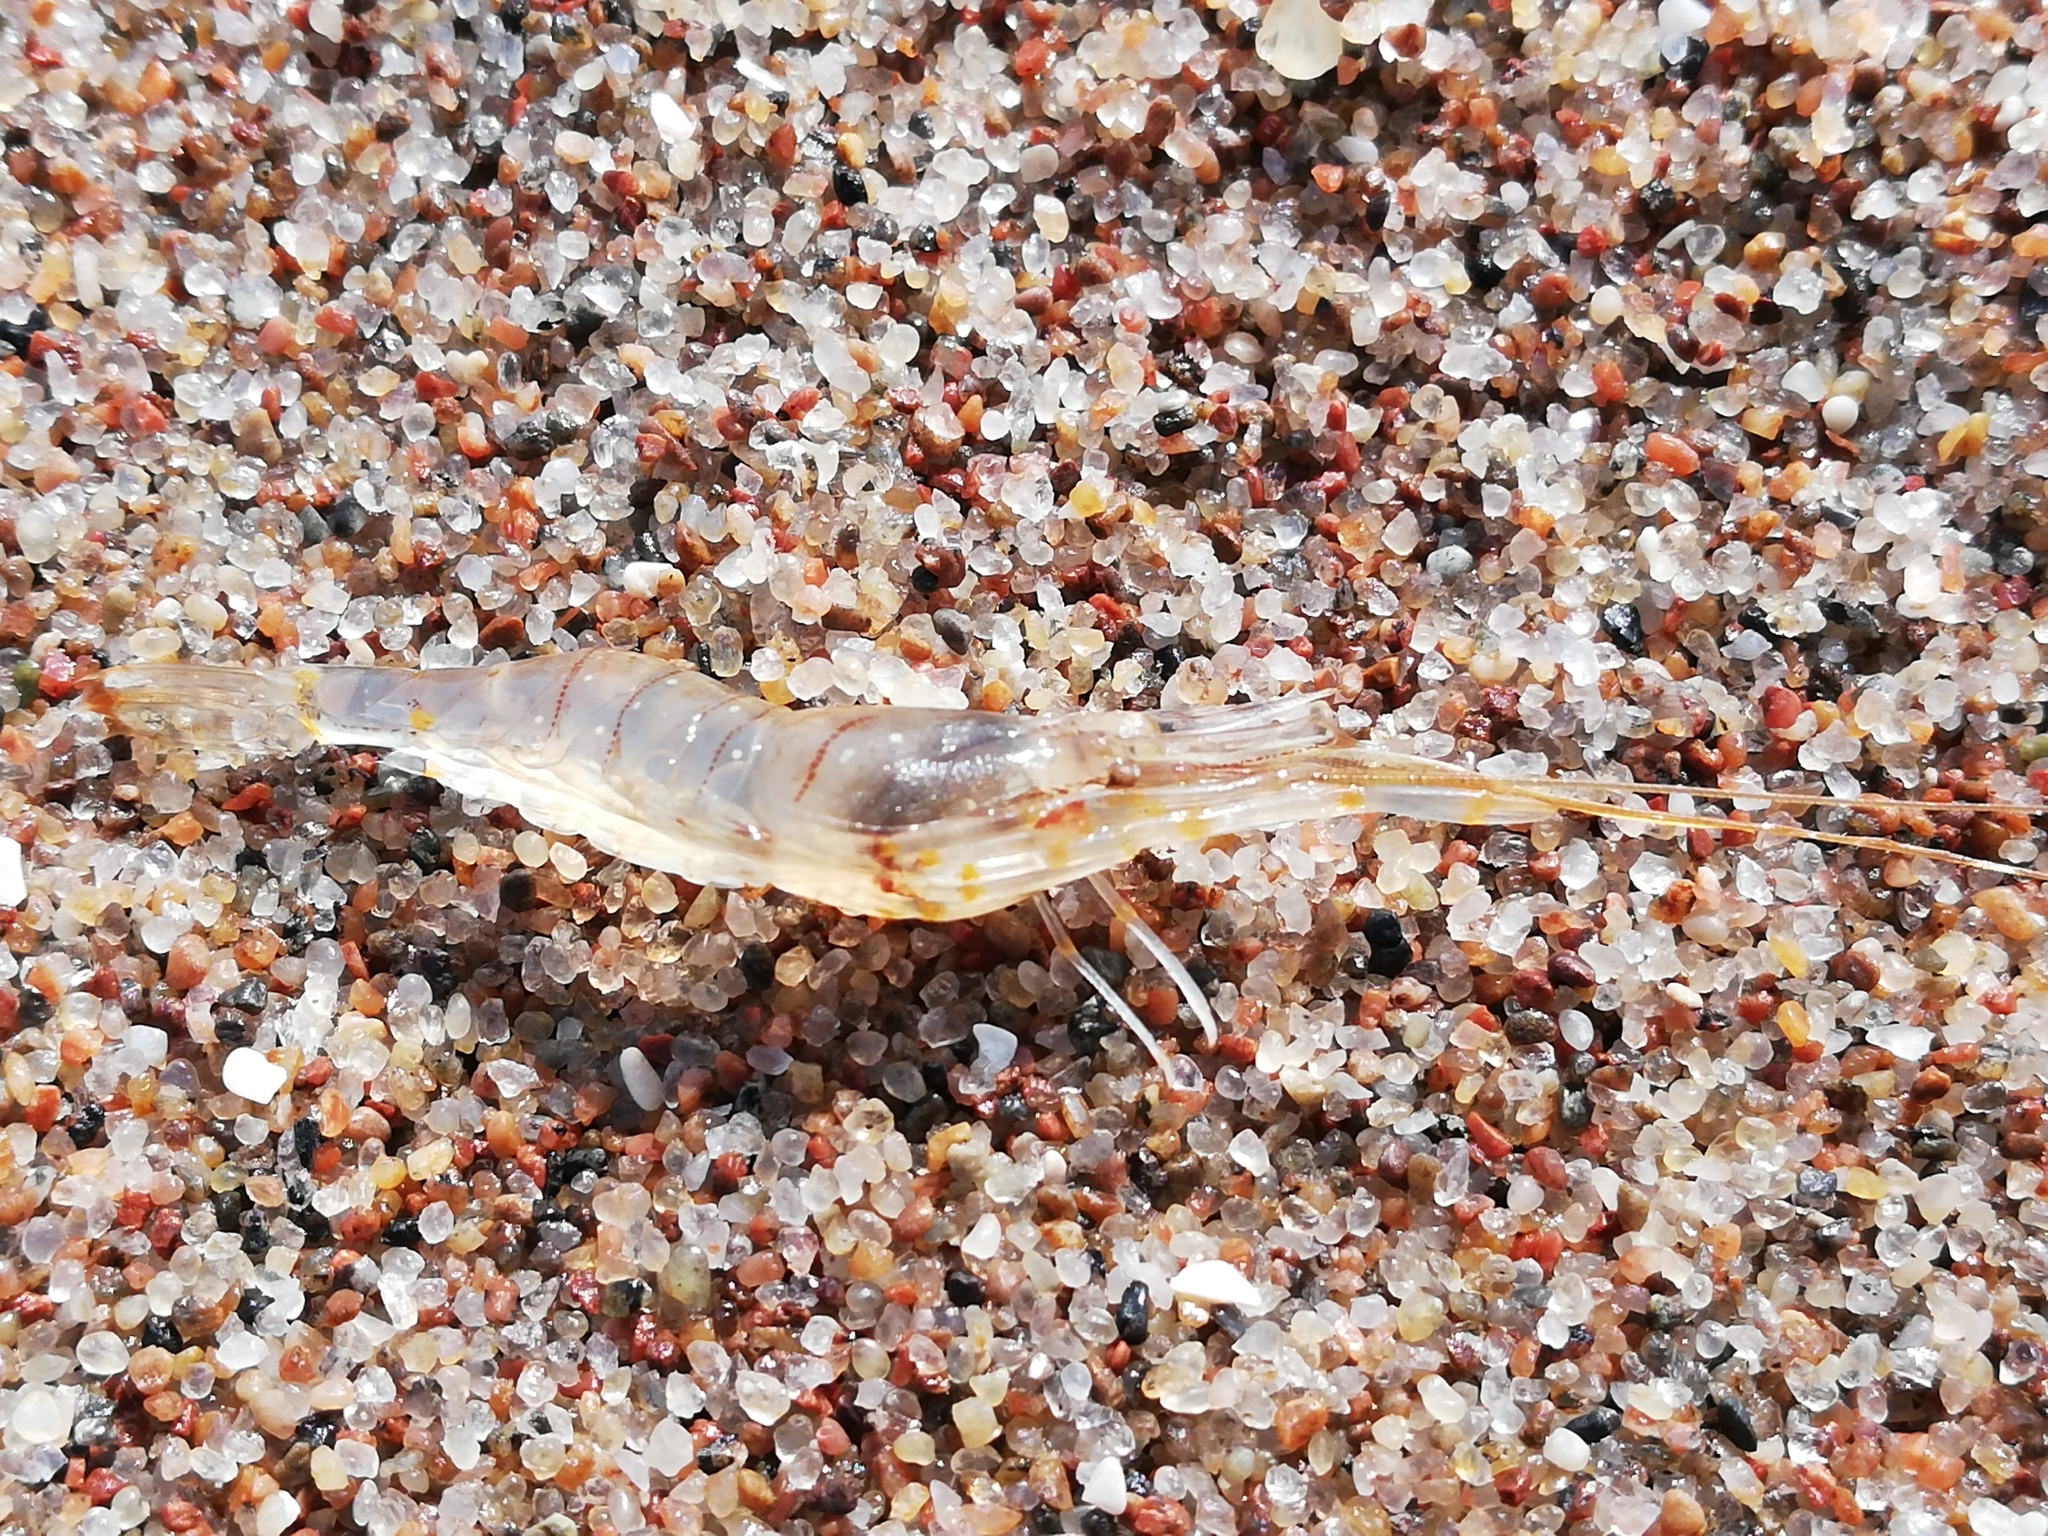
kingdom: Animalia
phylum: Arthropoda
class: Malacostraca
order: Decapoda
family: Palaemonidae
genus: Palaemon
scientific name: Palaemon elegans
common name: Grass prawm
